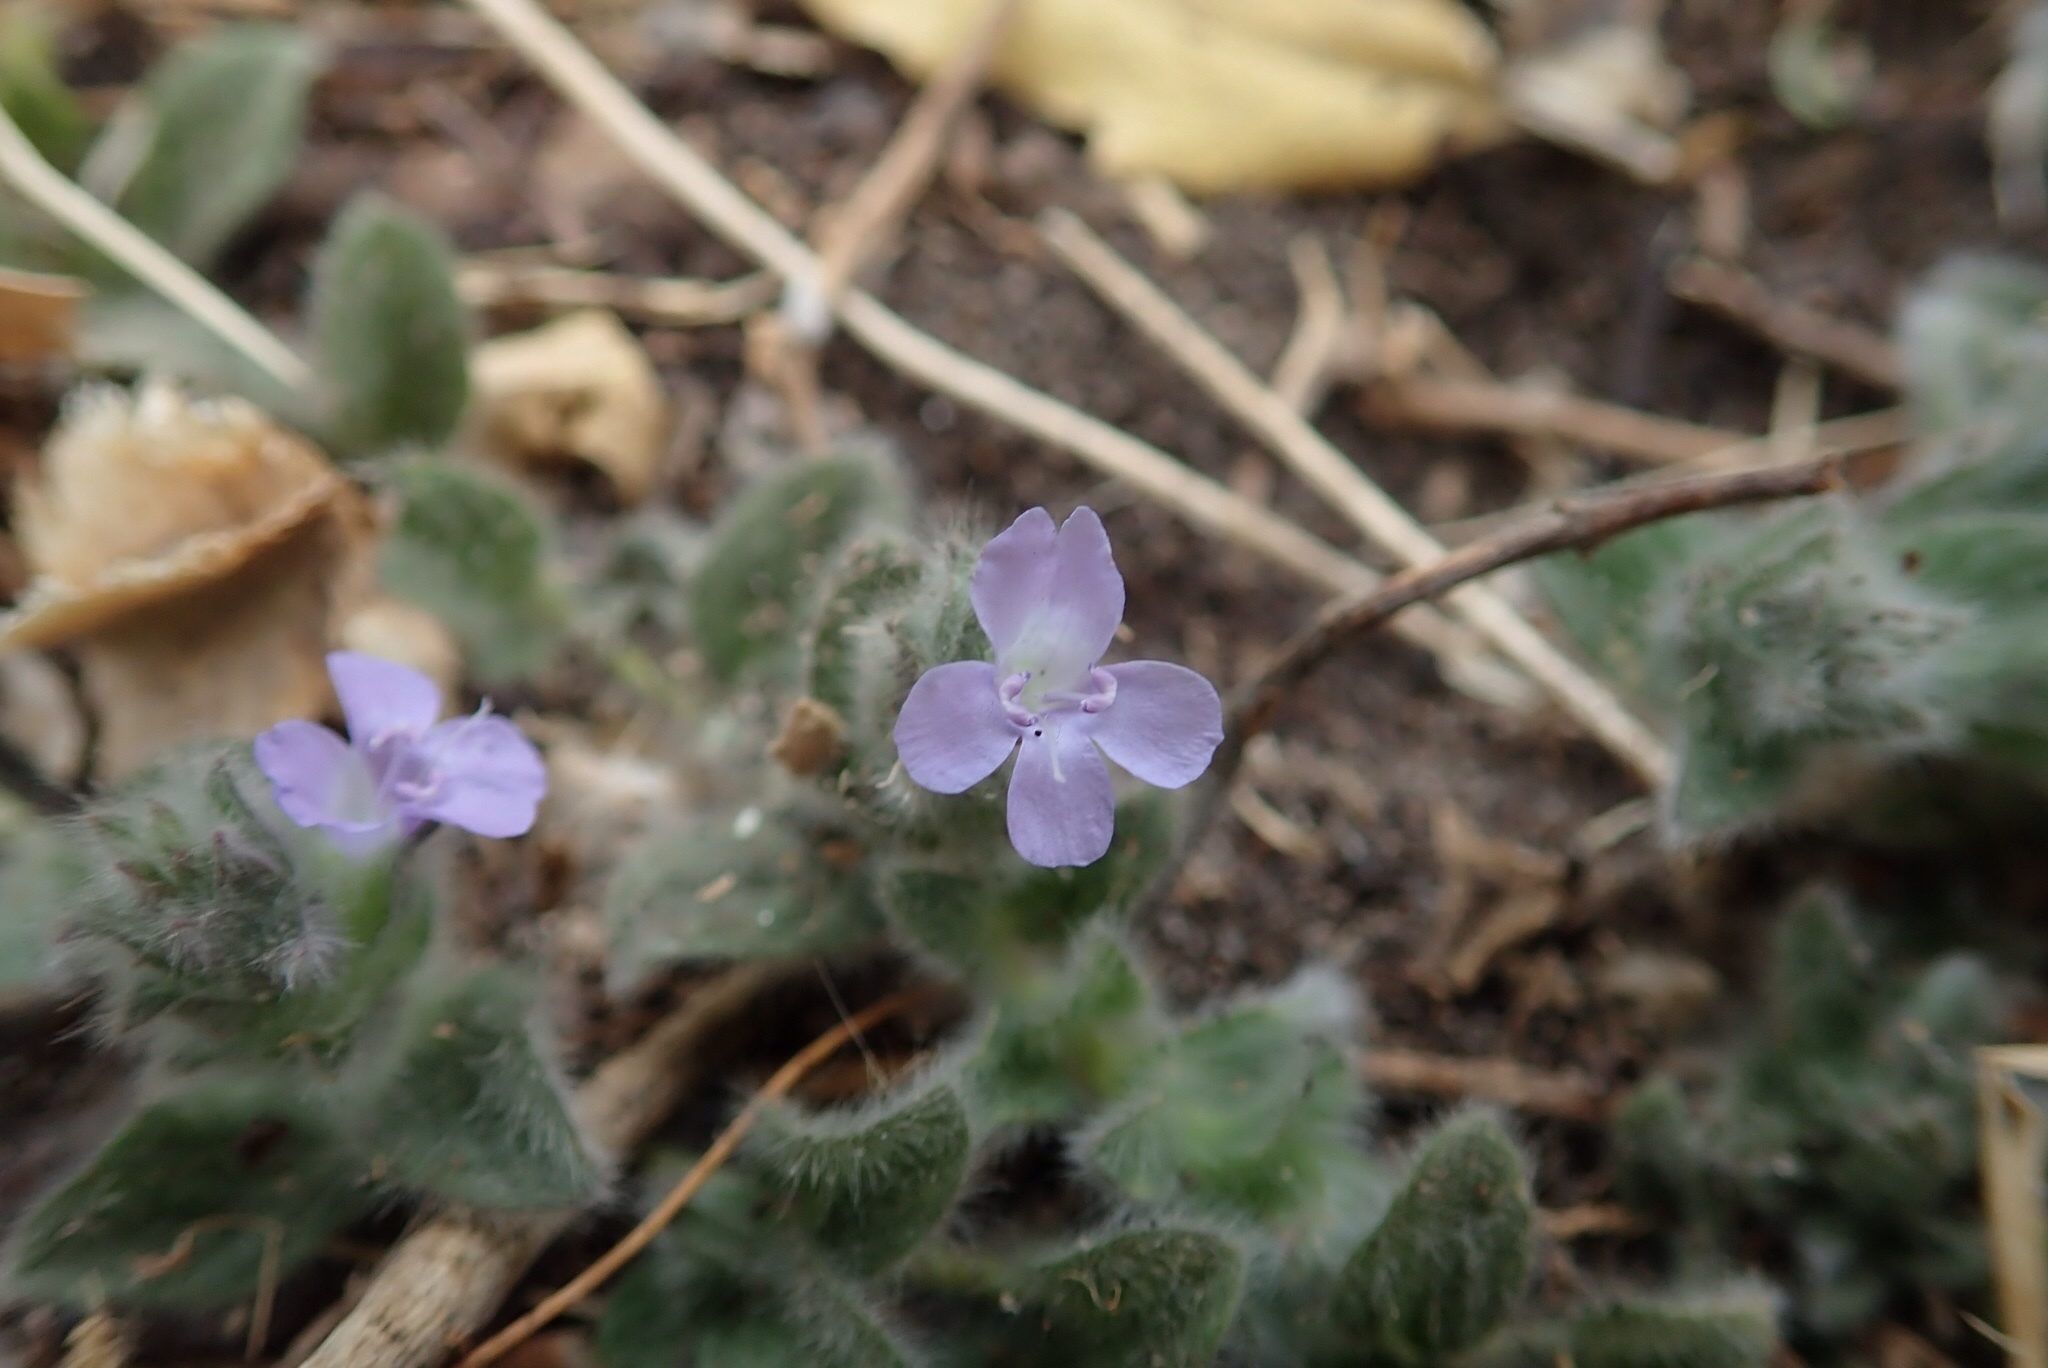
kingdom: Plantae
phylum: Tracheophyta
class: Magnoliopsida
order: Lamiales
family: Acanthaceae
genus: Nelsonia
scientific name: Nelsonia canescens
